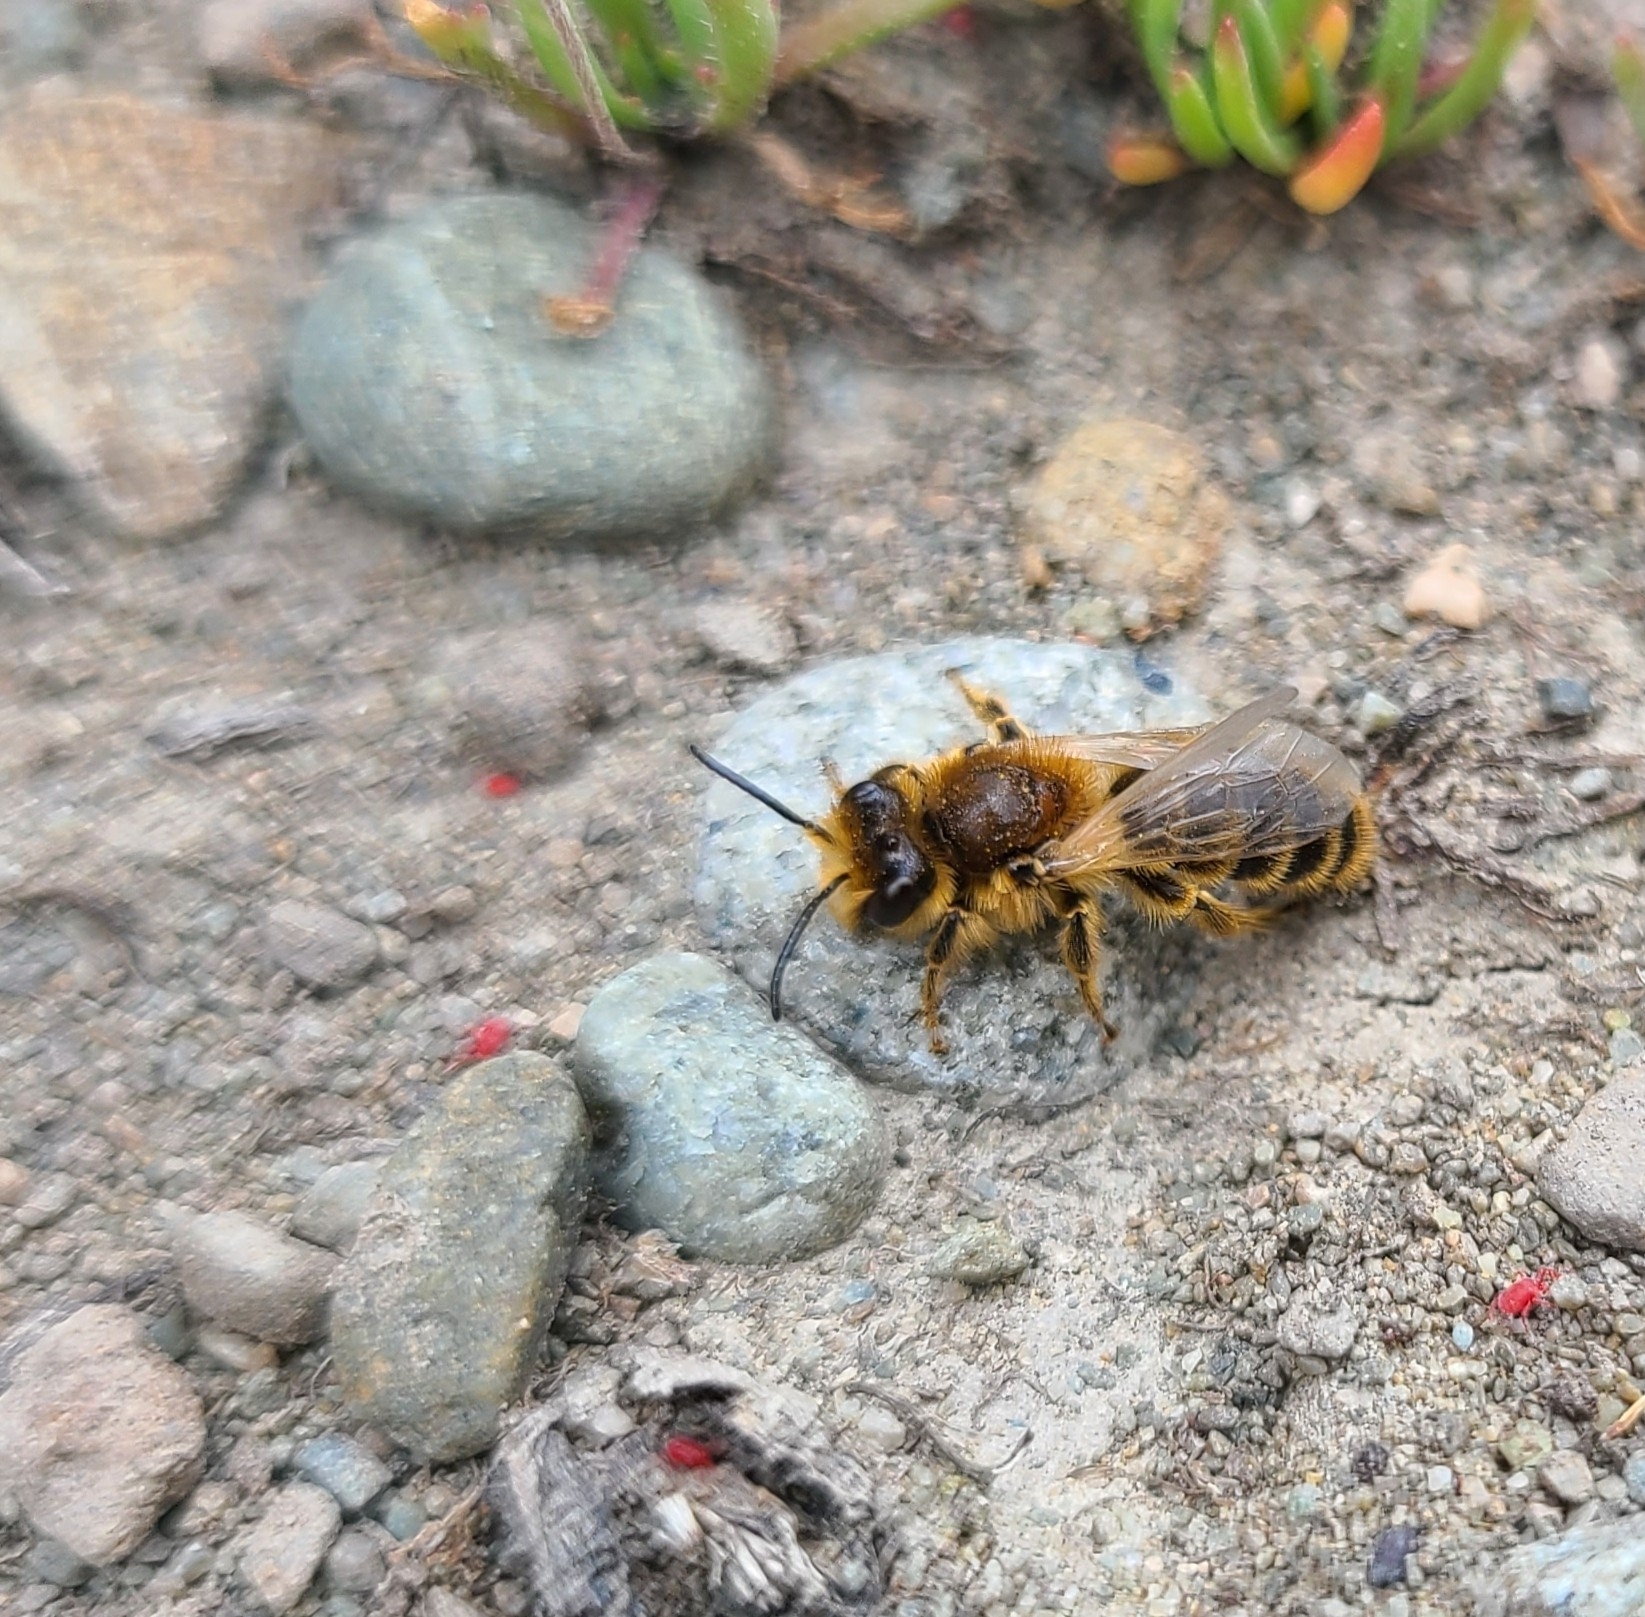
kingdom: Animalia
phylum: Arthropoda
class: Insecta
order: Hymenoptera
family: Colletidae
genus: Leioproctus
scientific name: Leioproctus fulvescens
